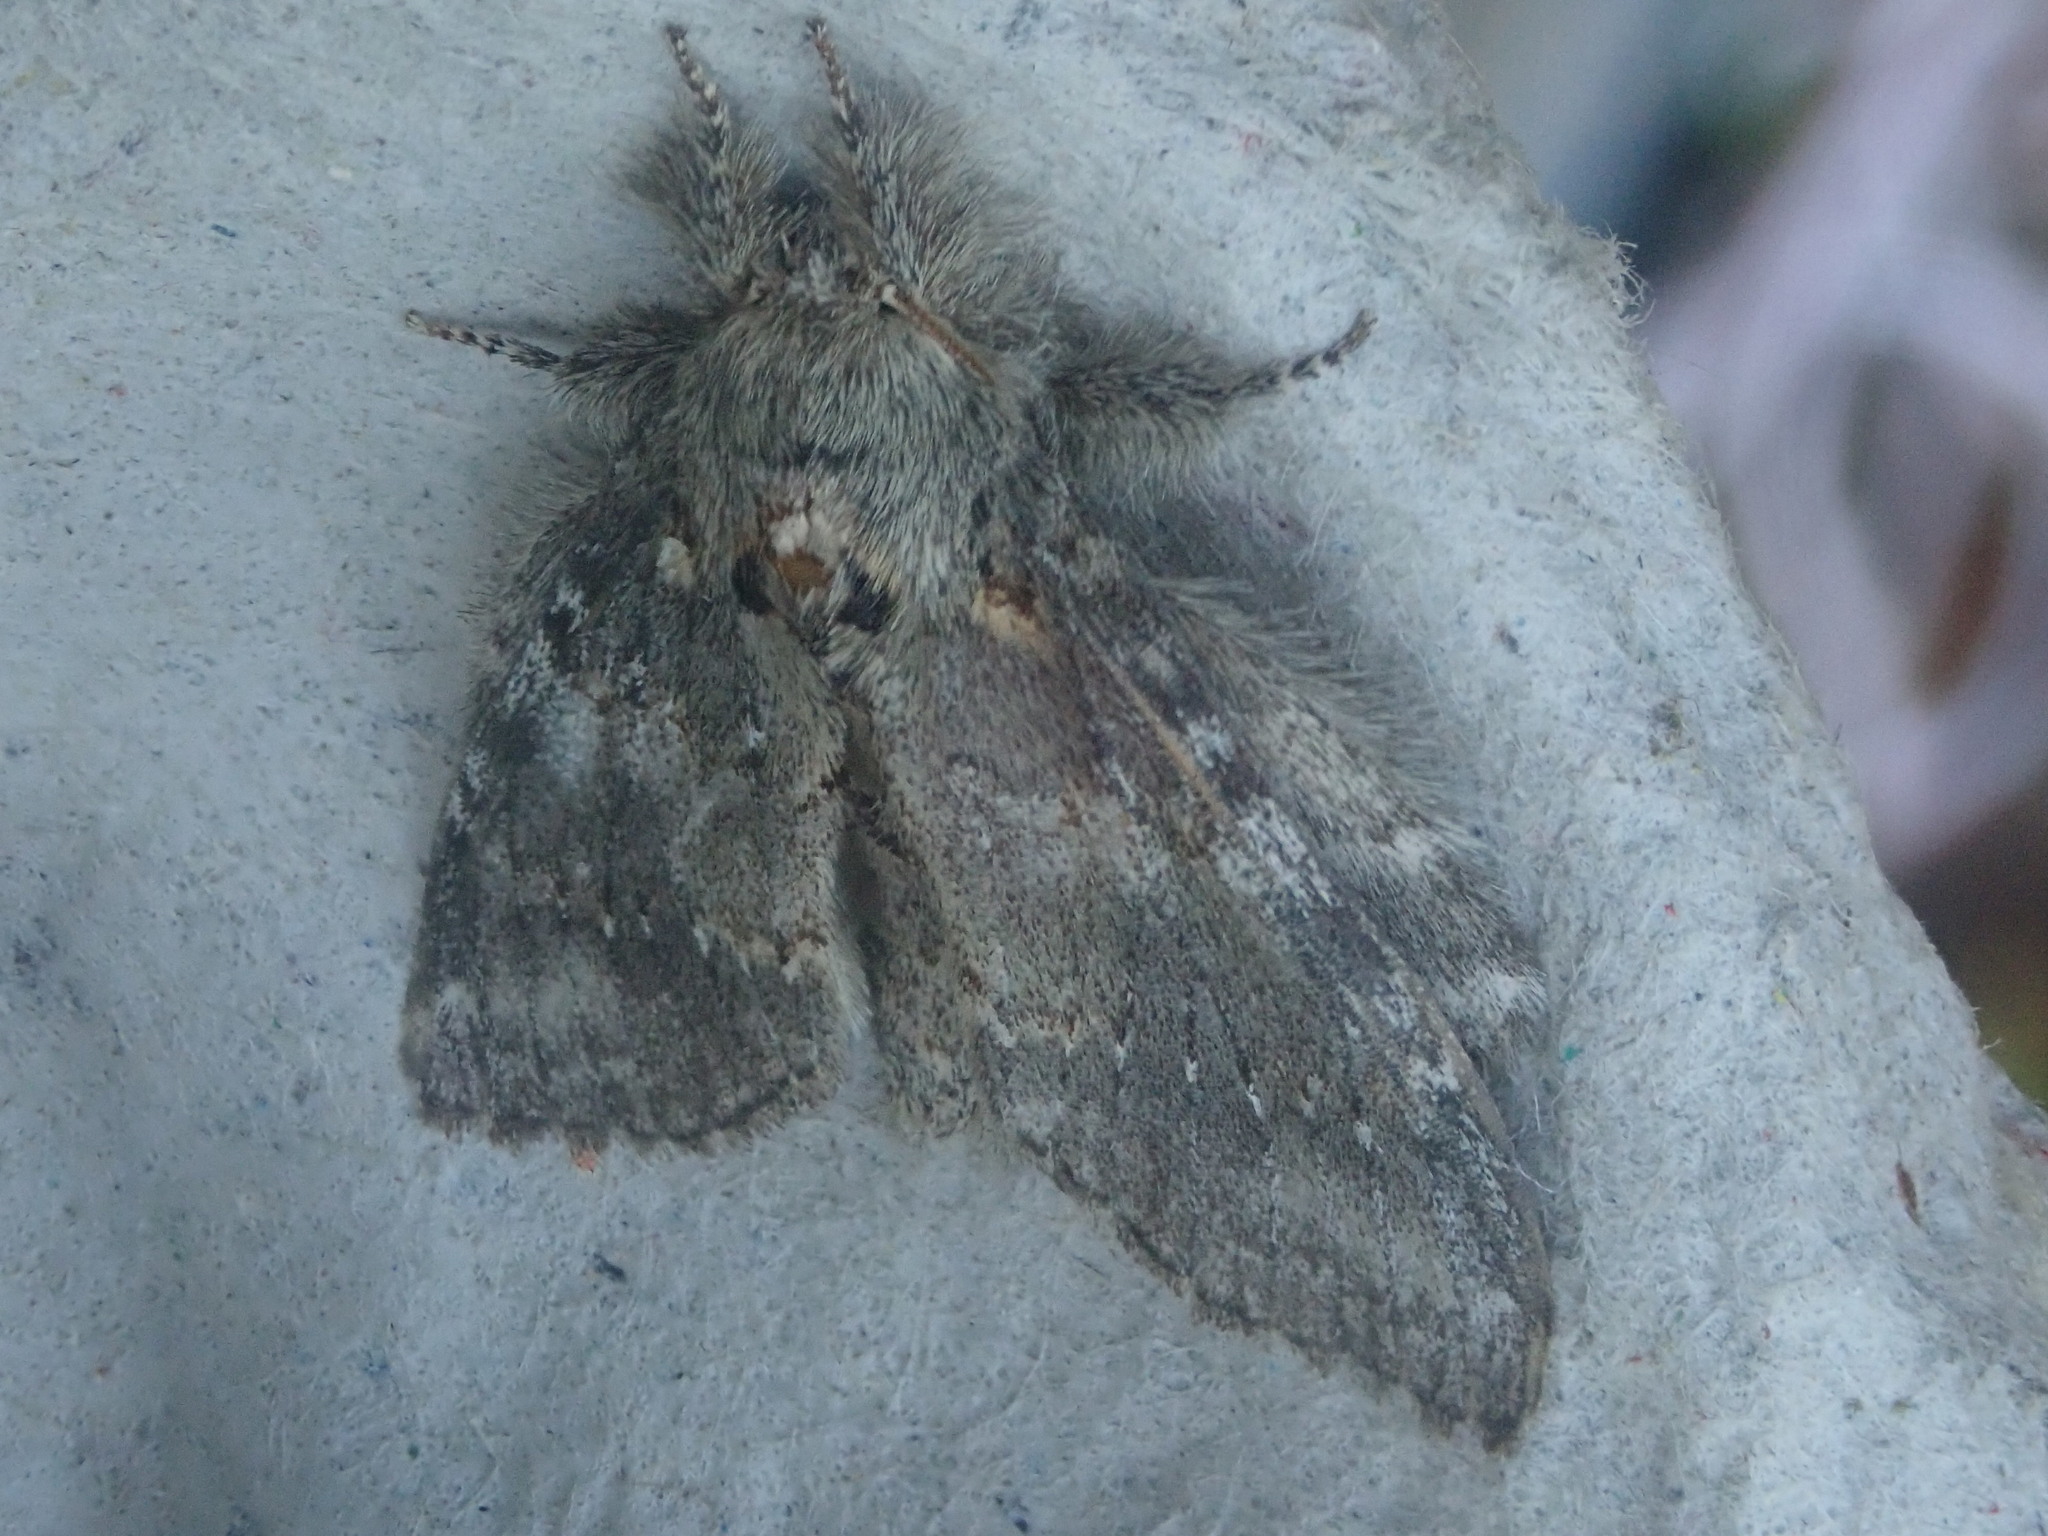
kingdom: Animalia
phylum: Arthropoda
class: Insecta
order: Lepidoptera
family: Notodontidae
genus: Peridea
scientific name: Peridea angulosa
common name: Angulose prominent
